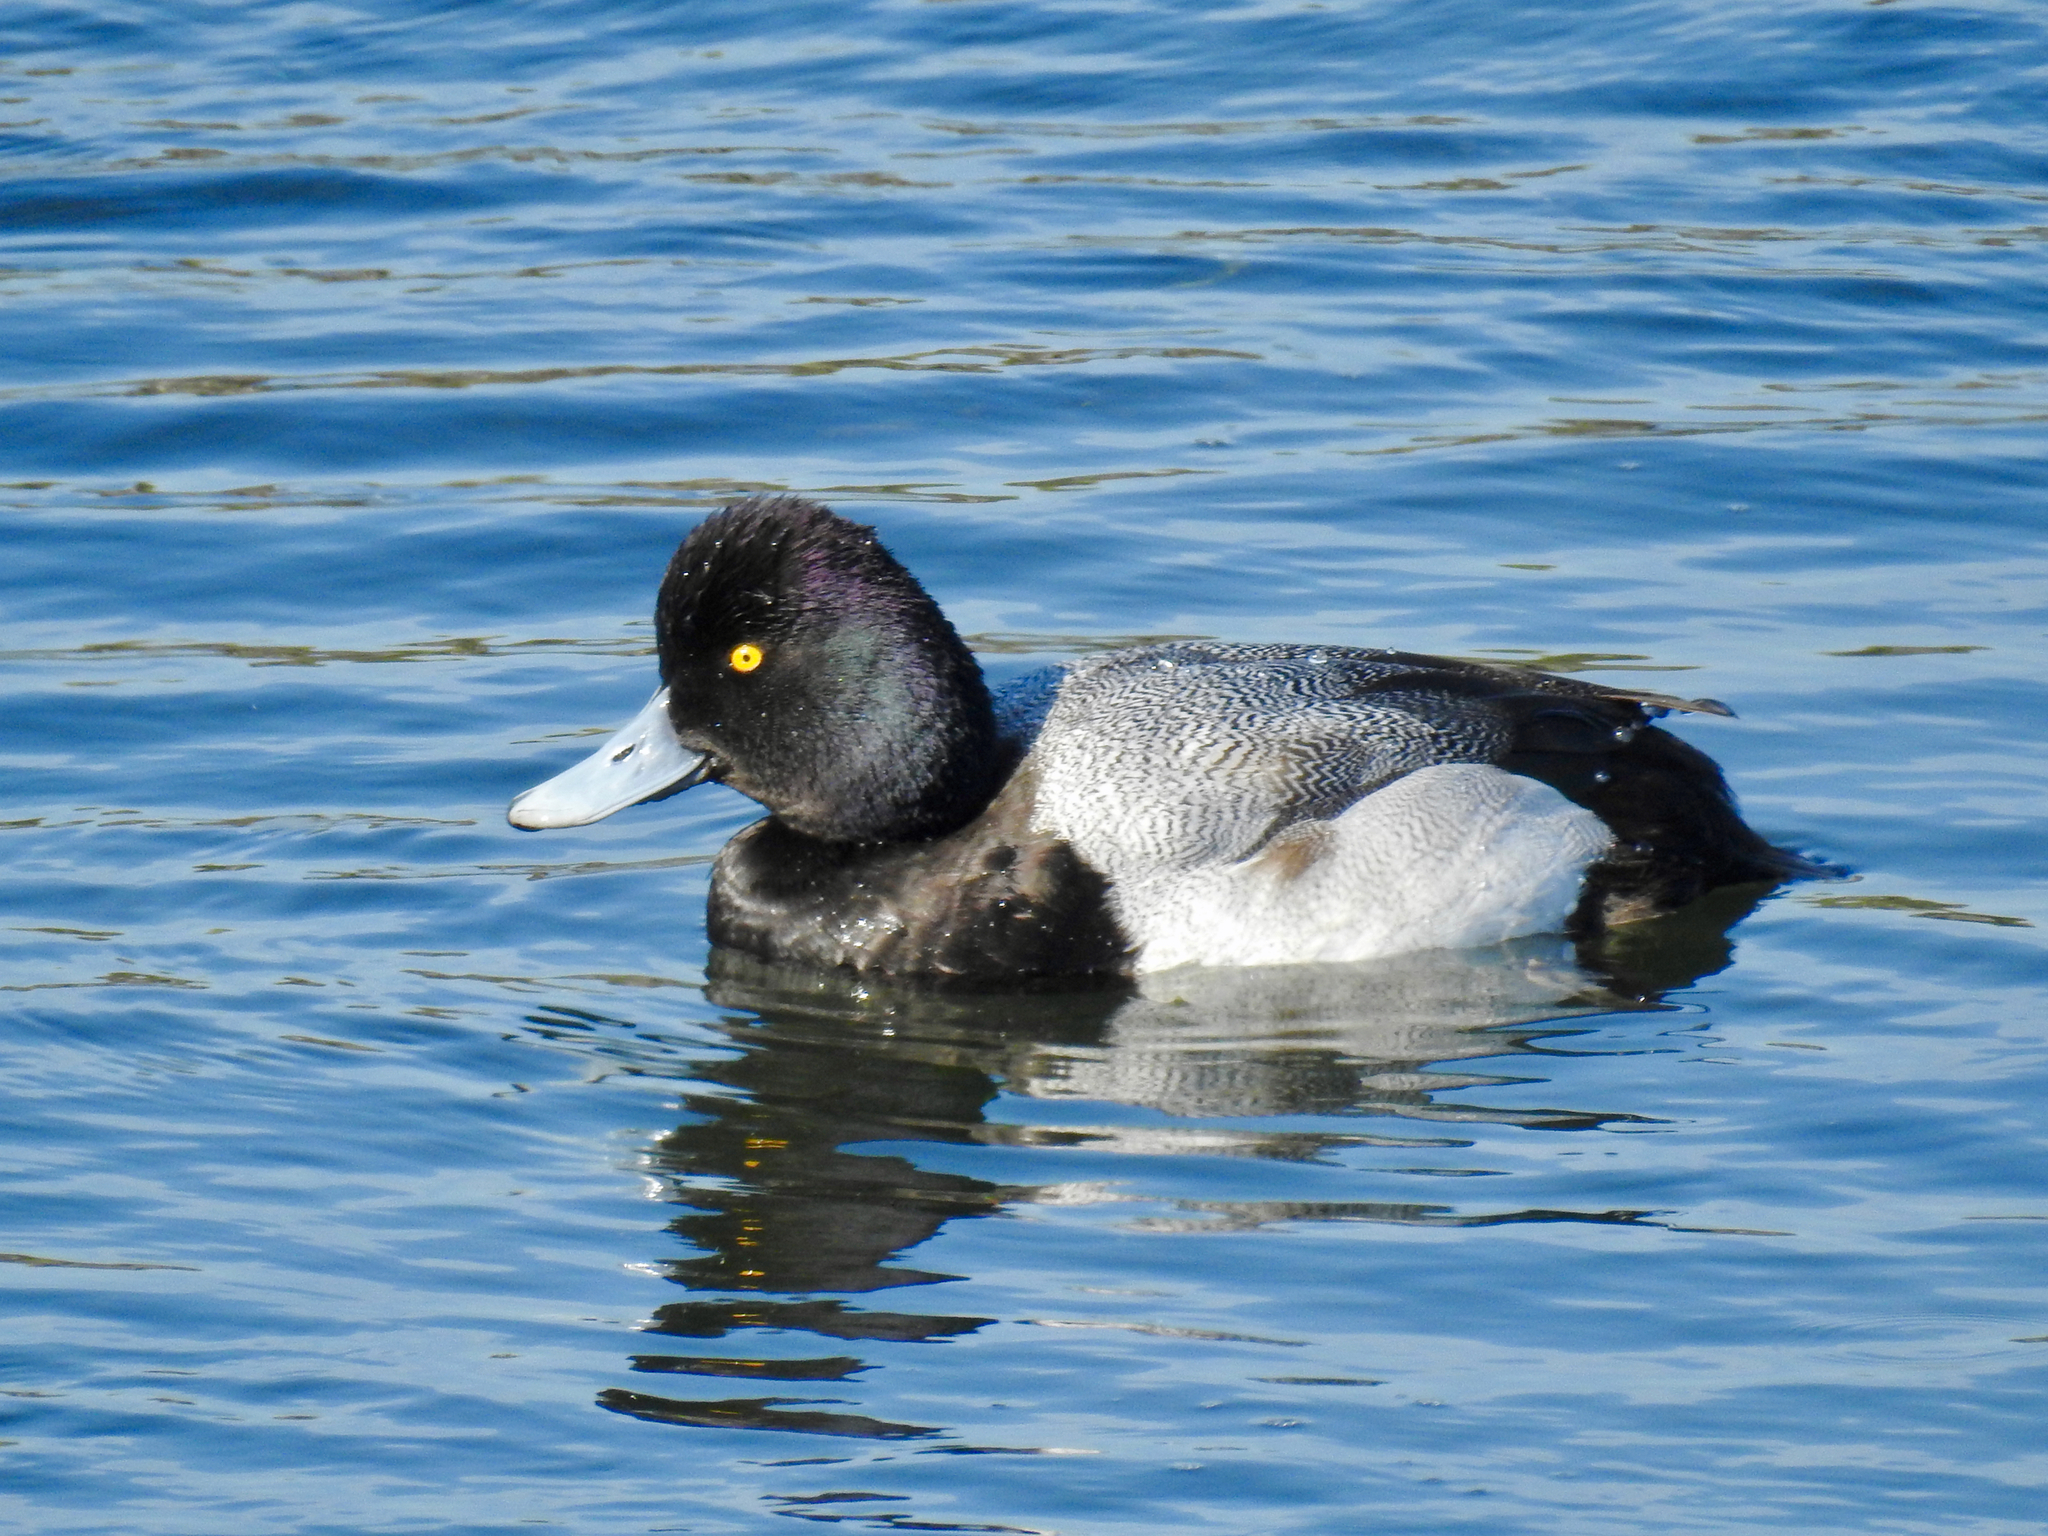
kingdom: Animalia
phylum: Chordata
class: Aves
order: Anseriformes
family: Anatidae
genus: Aythya
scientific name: Aythya affinis
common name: Lesser scaup
